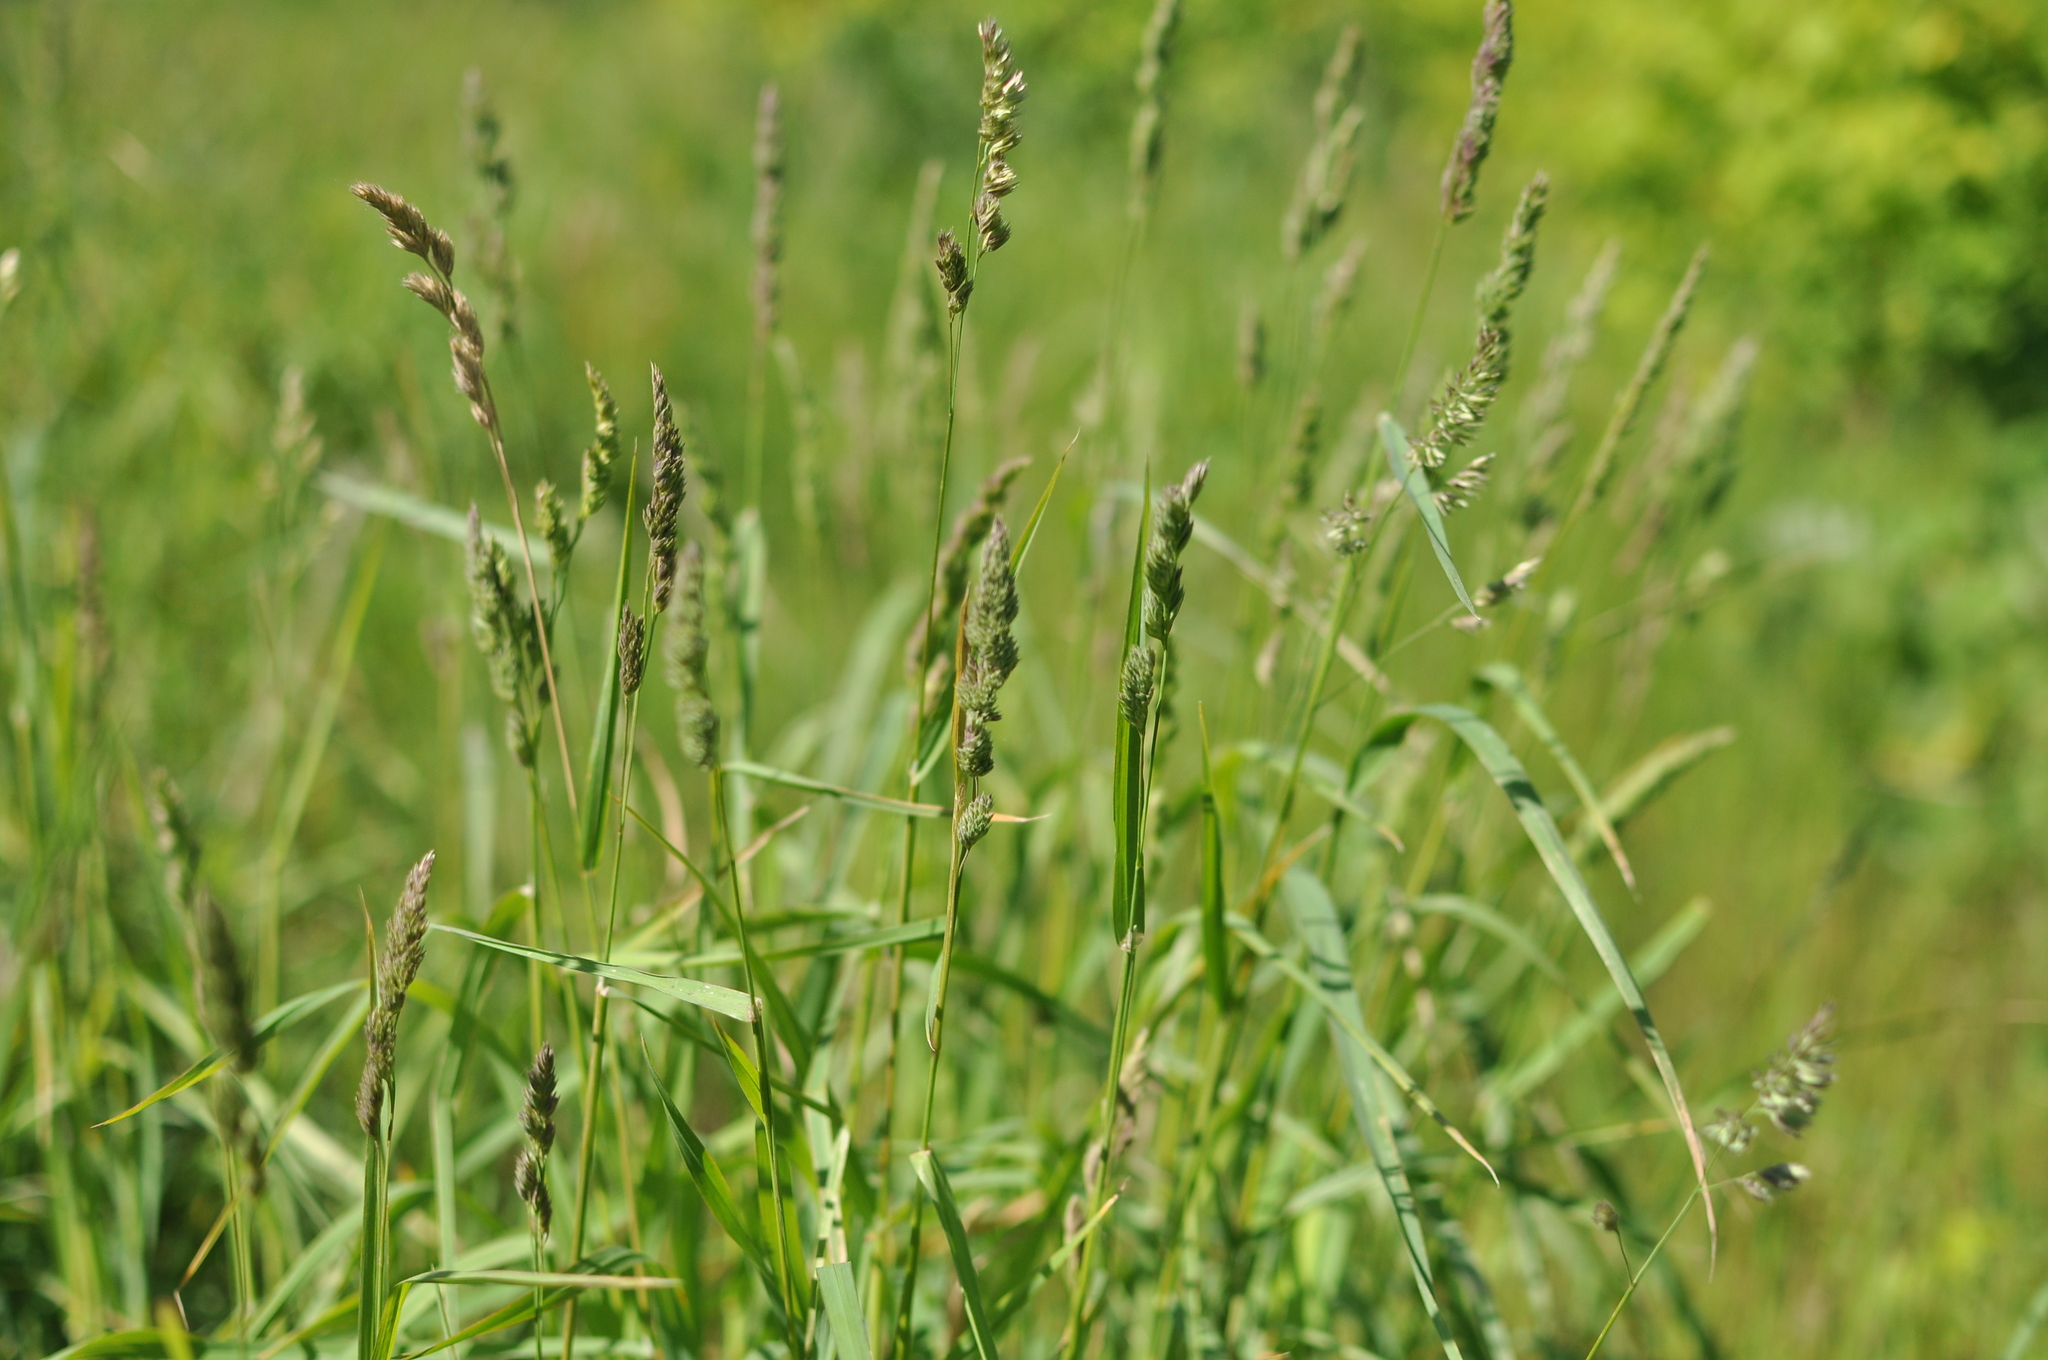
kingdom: Plantae
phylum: Tracheophyta
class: Liliopsida
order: Poales
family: Poaceae
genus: Dactylis
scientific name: Dactylis glomerata
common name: Orchardgrass
